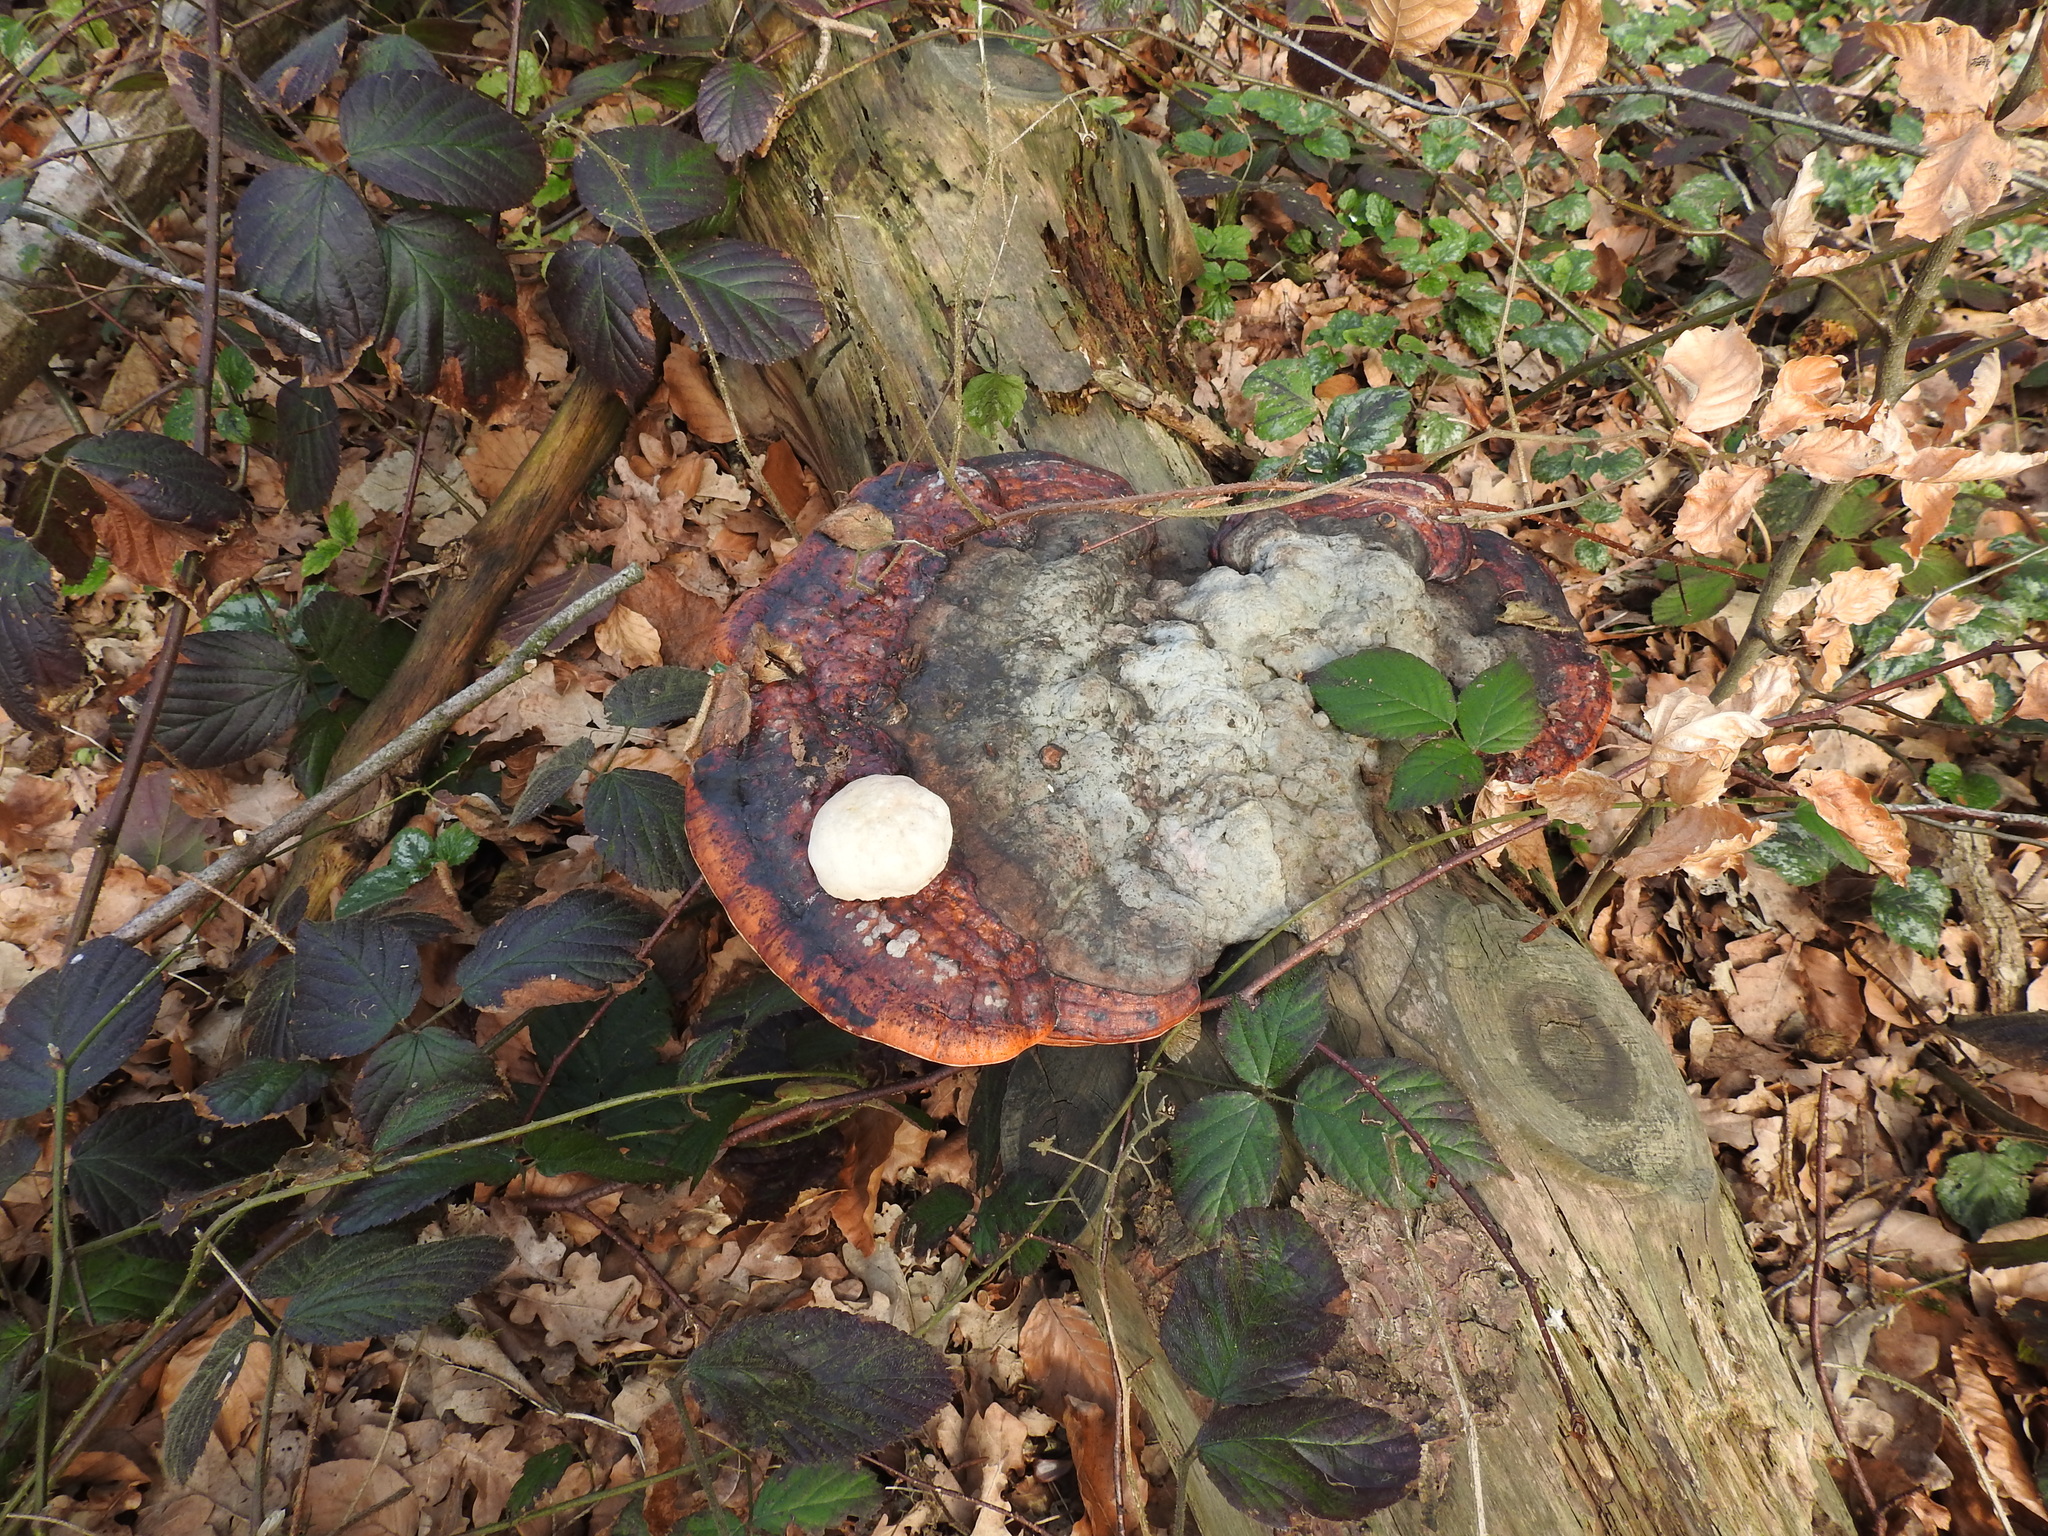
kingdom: Fungi
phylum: Basidiomycota
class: Agaricomycetes
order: Polyporales
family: Fomitopsidaceae
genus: Fomitopsis
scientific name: Fomitopsis pinicola
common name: Red-belted bracket
